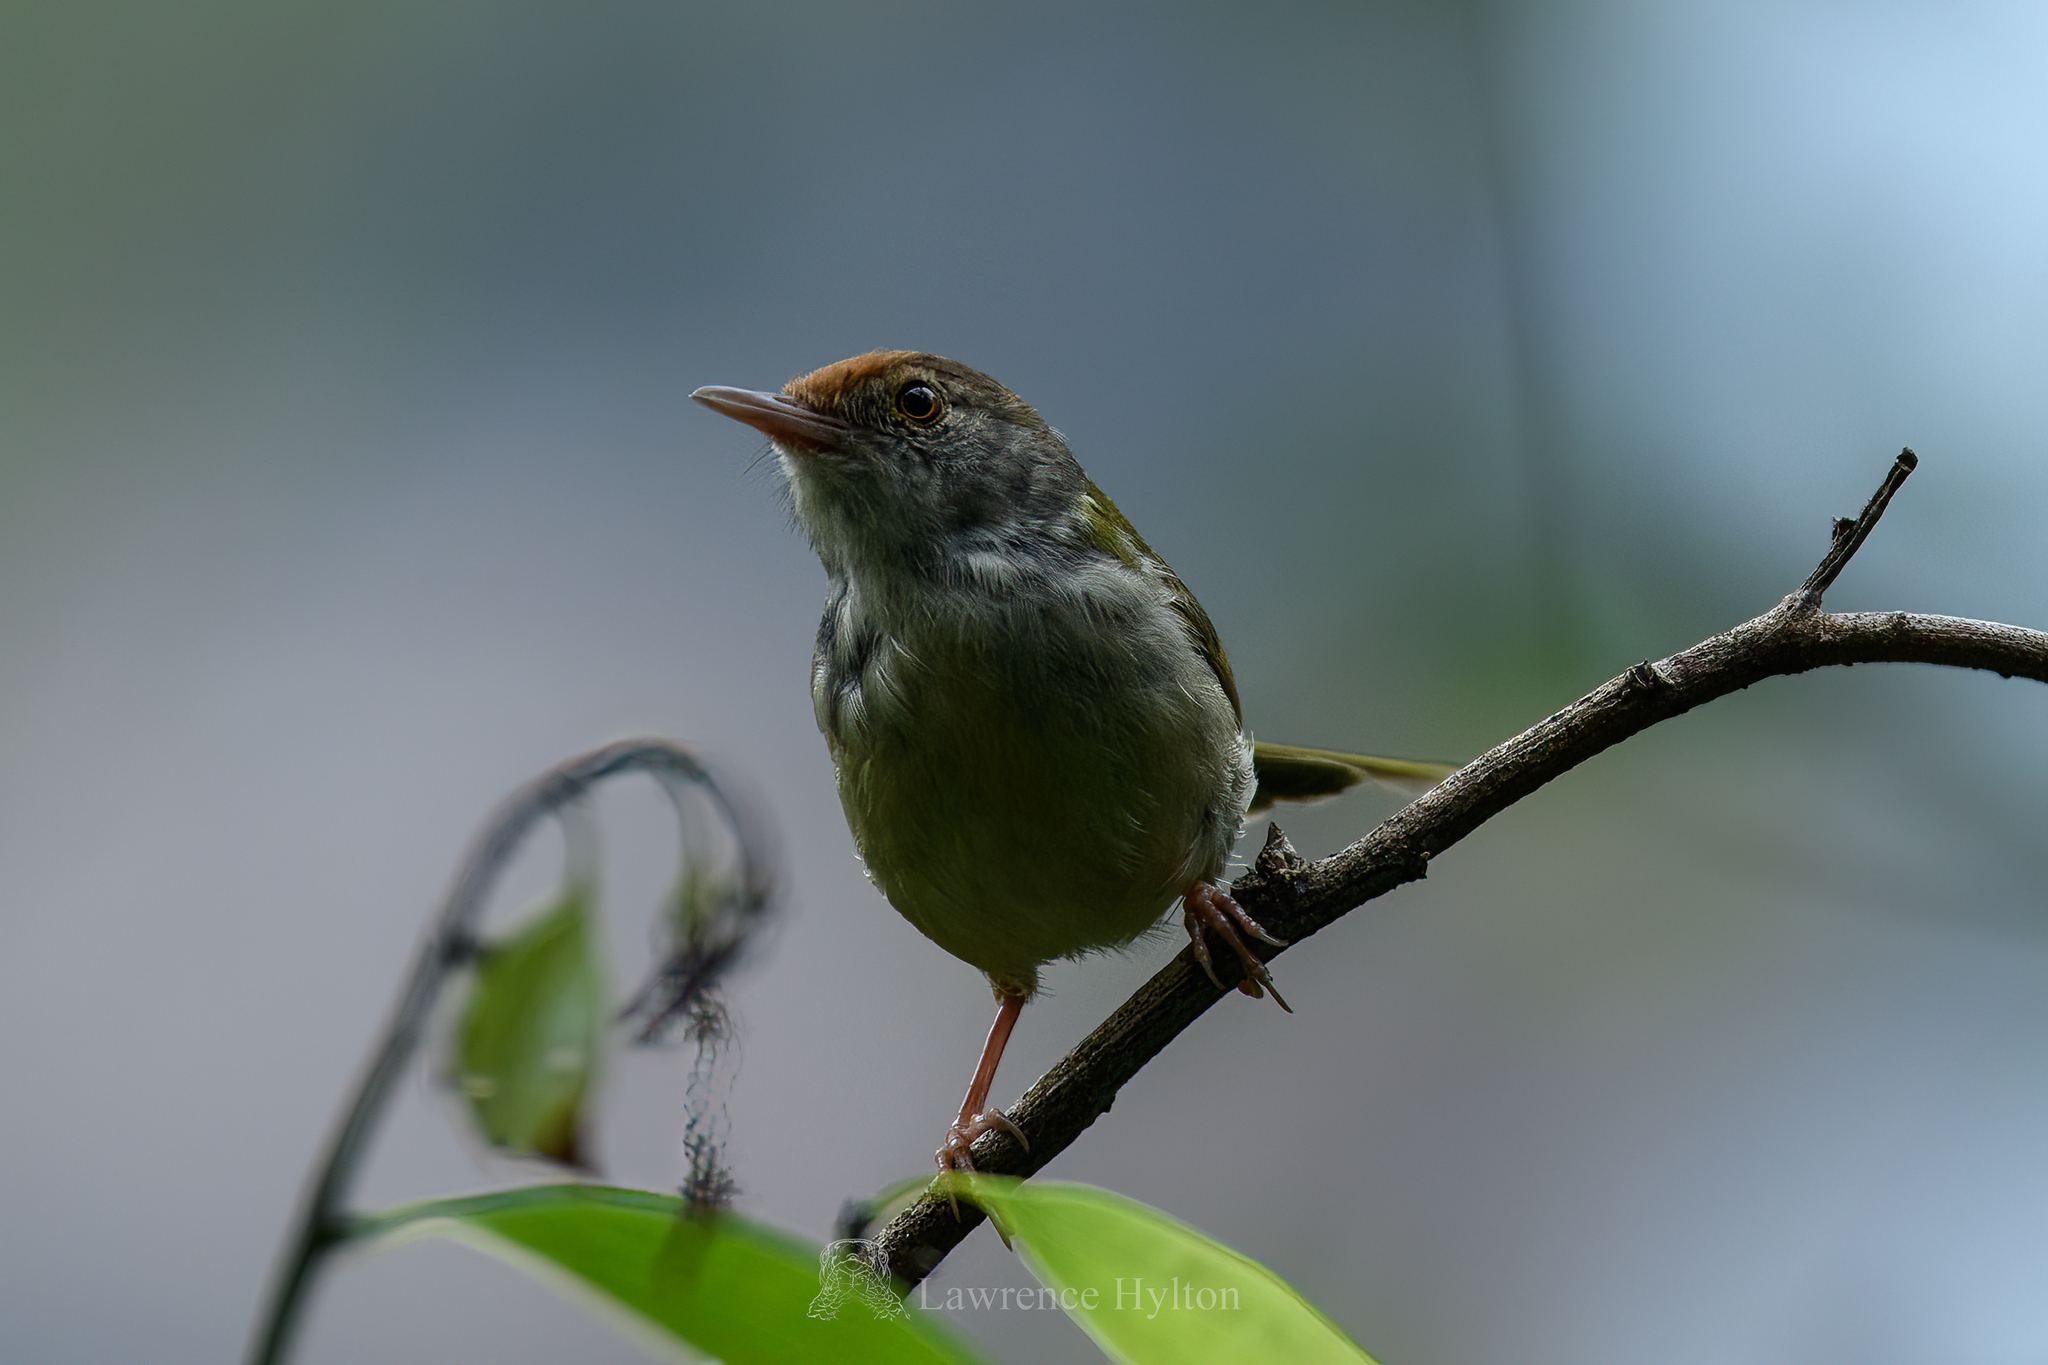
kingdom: Animalia
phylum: Chordata
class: Aves
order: Passeriformes
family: Cisticolidae
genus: Orthotomus
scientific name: Orthotomus sutorius
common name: Common tailorbird
